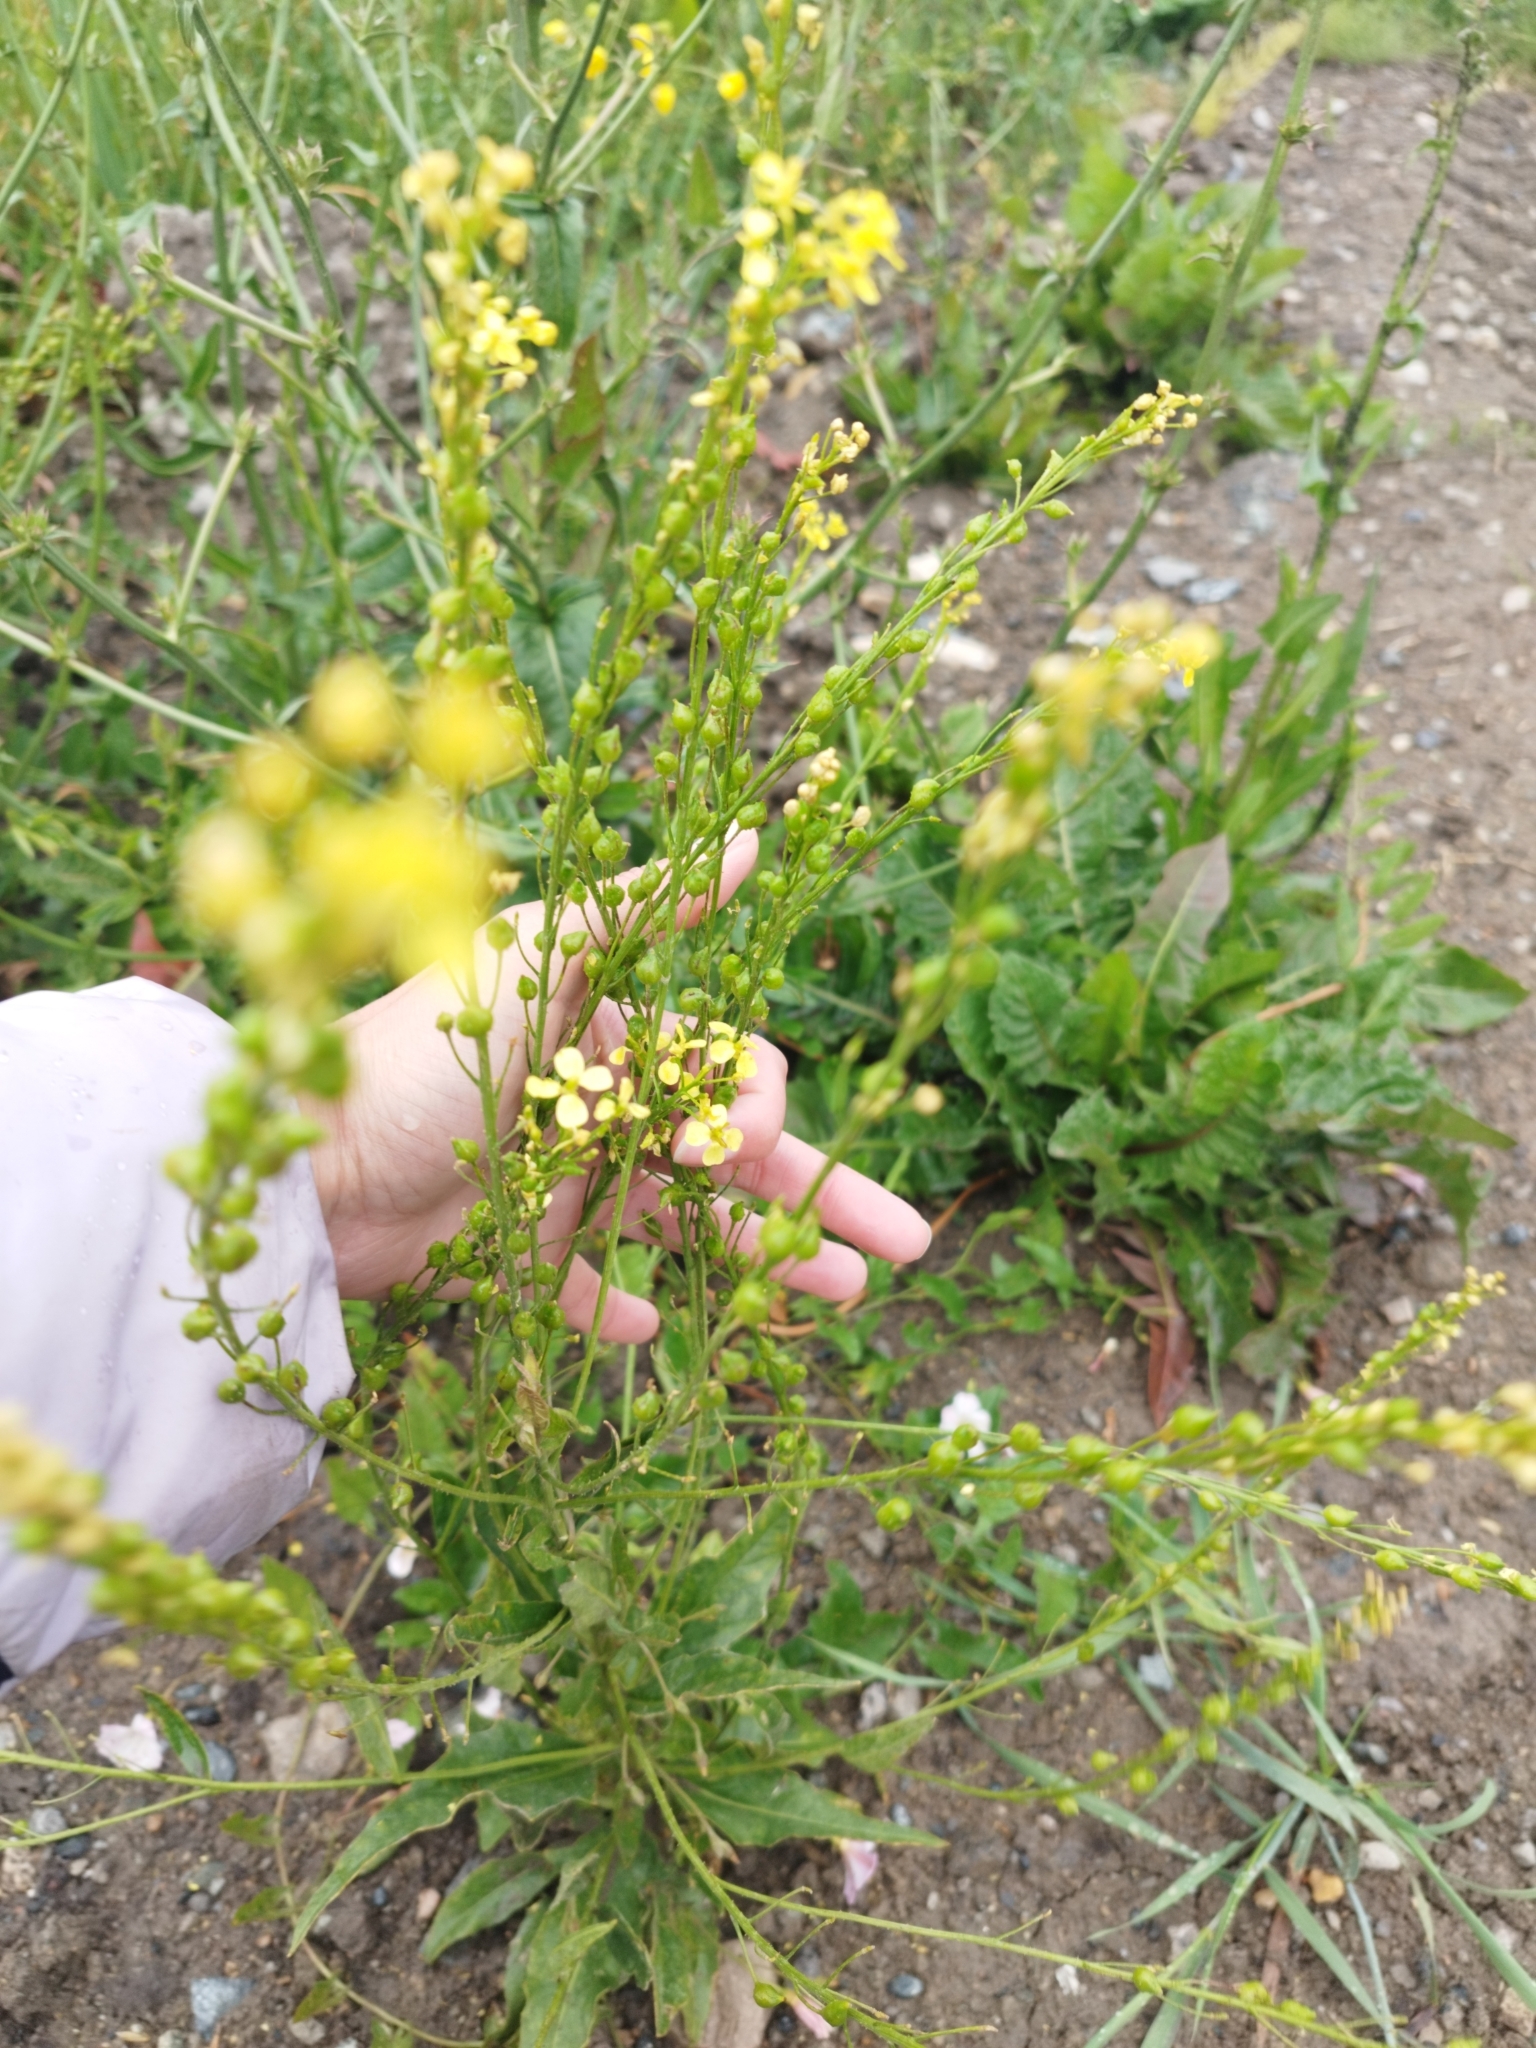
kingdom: Plantae
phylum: Tracheophyta
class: Magnoliopsida
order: Brassicales
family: Brassicaceae
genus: Bunias
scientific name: Bunias orientalis
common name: Warty-cabbage
